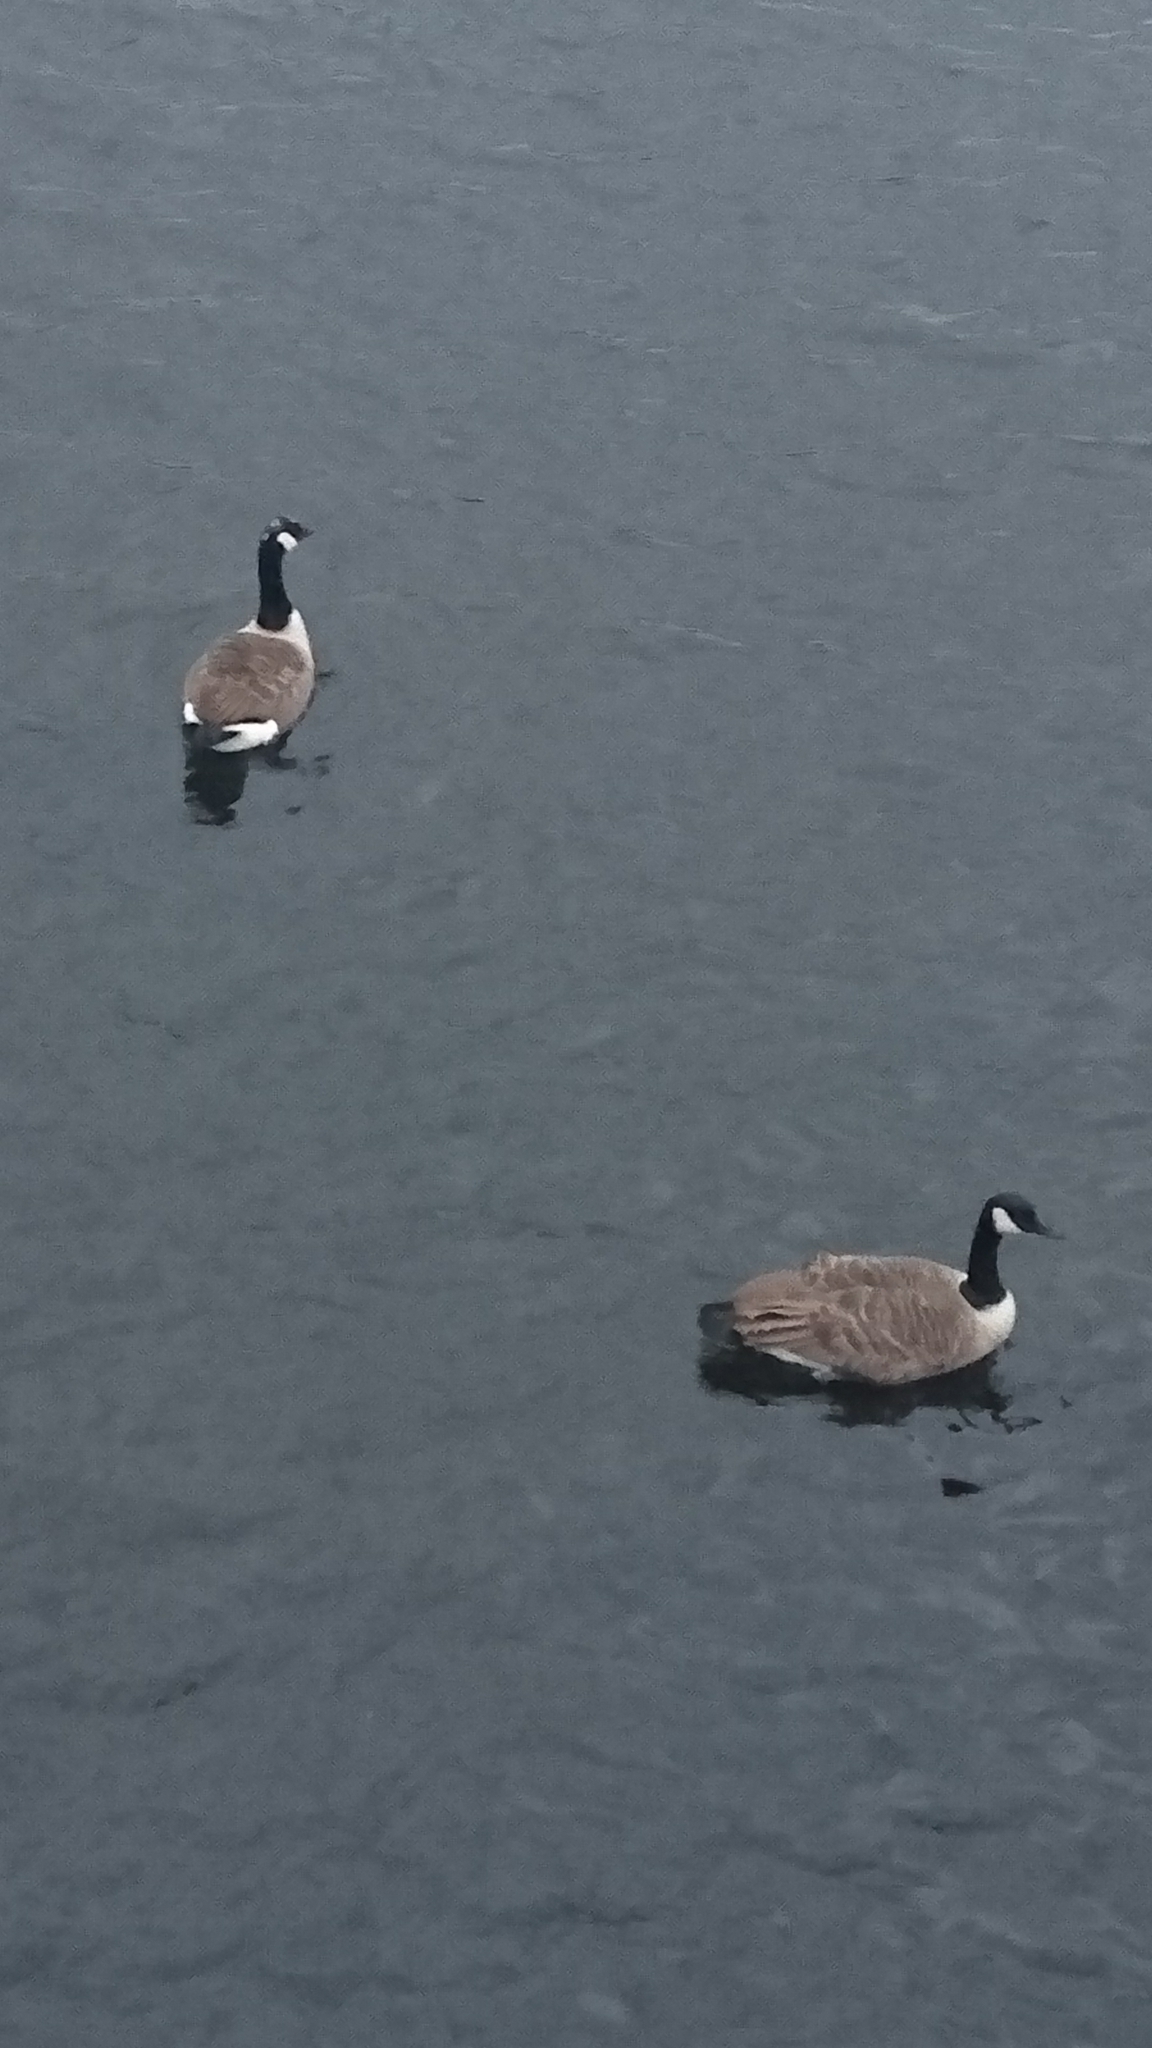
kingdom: Animalia
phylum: Chordata
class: Aves
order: Anseriformes
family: Anatidae
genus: Branta
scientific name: Branta canadensis
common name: Canada goose
